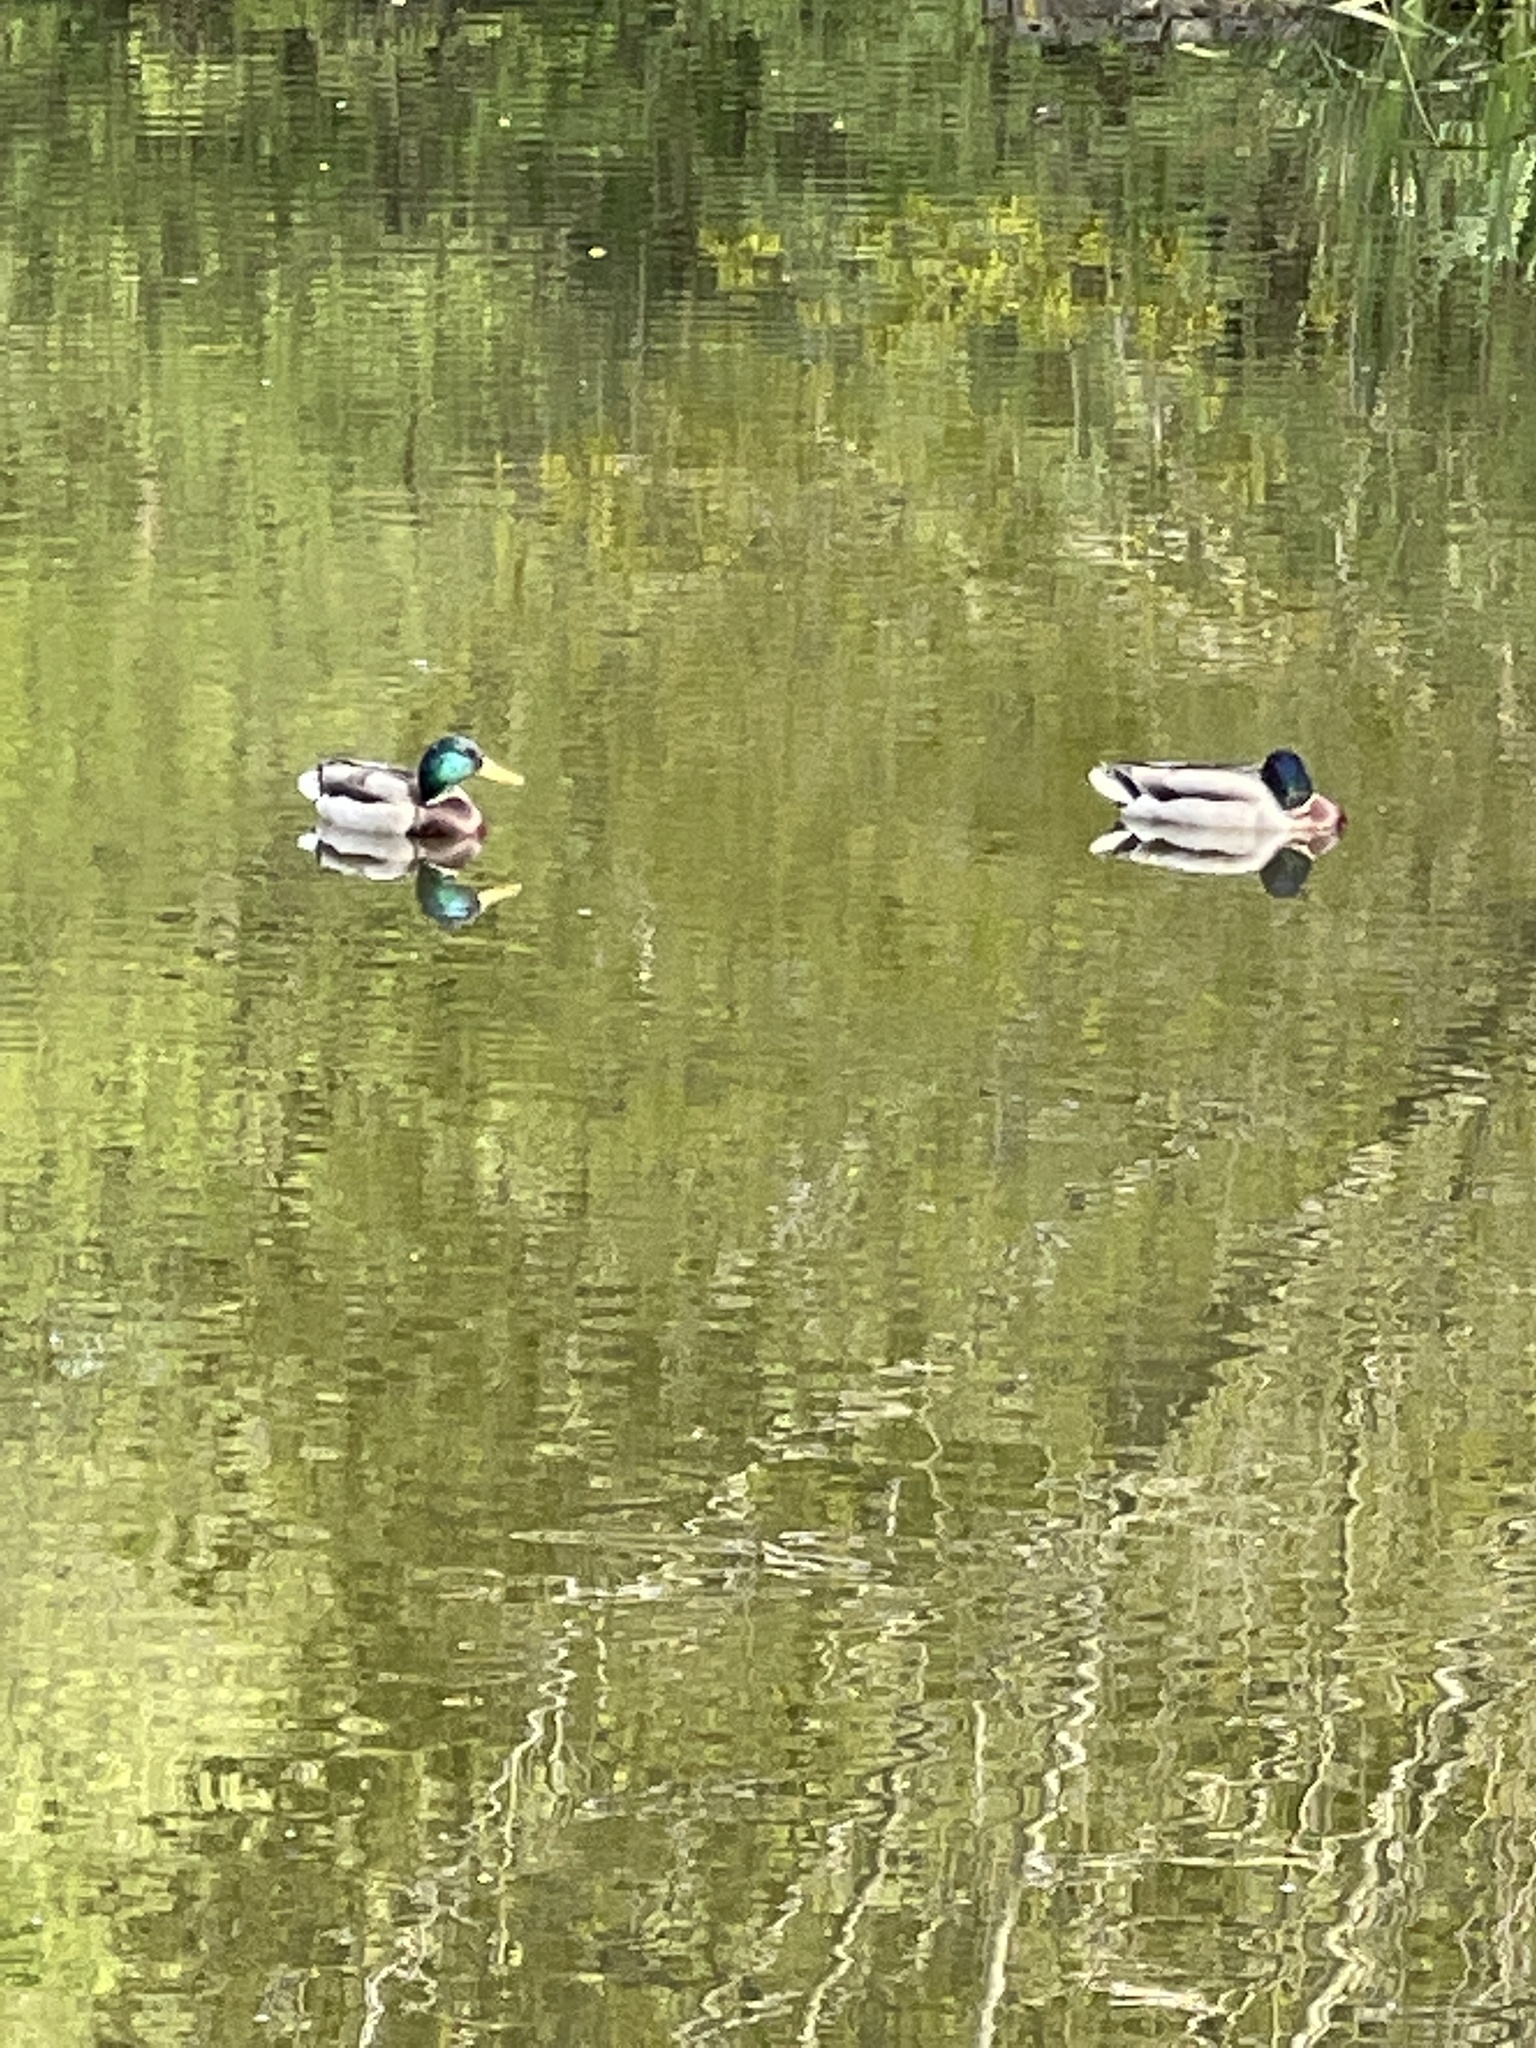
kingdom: Animalia
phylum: Chordata
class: Aves
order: Anseriformes
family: Anatidae
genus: Anas
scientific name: Anas platyrhynchos
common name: Mallard
